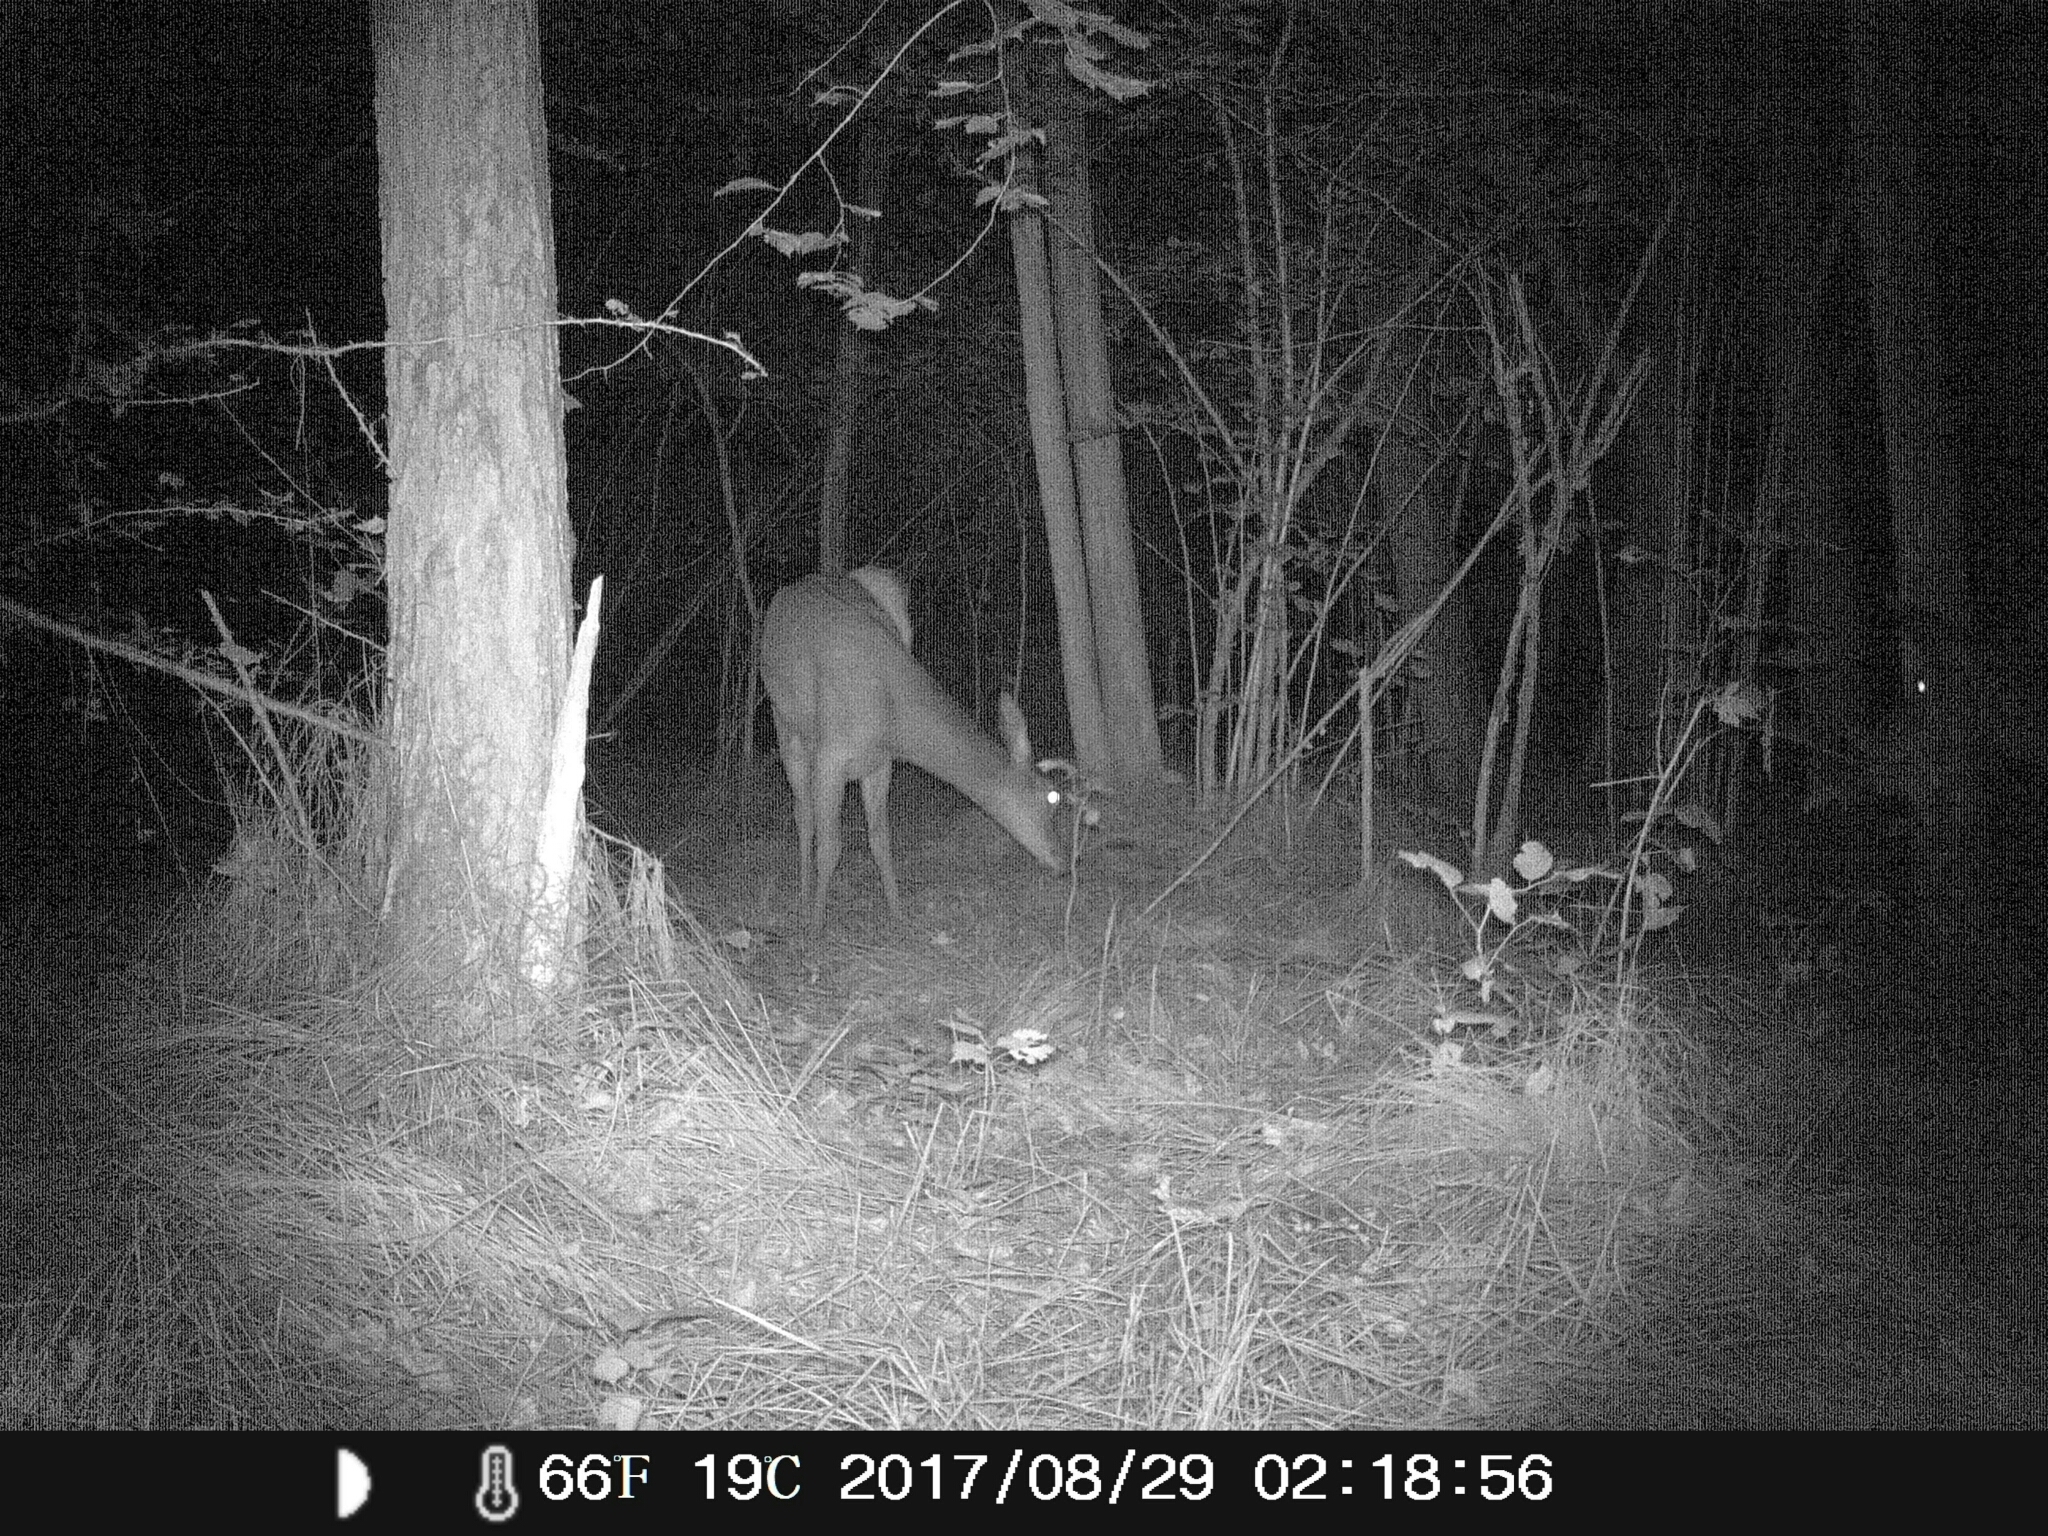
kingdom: Animalia
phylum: Chordata
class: Mammalia
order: Artiodactyla
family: Cervidae
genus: Capreolus
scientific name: Capreolus capreolus
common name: Western roe deer
